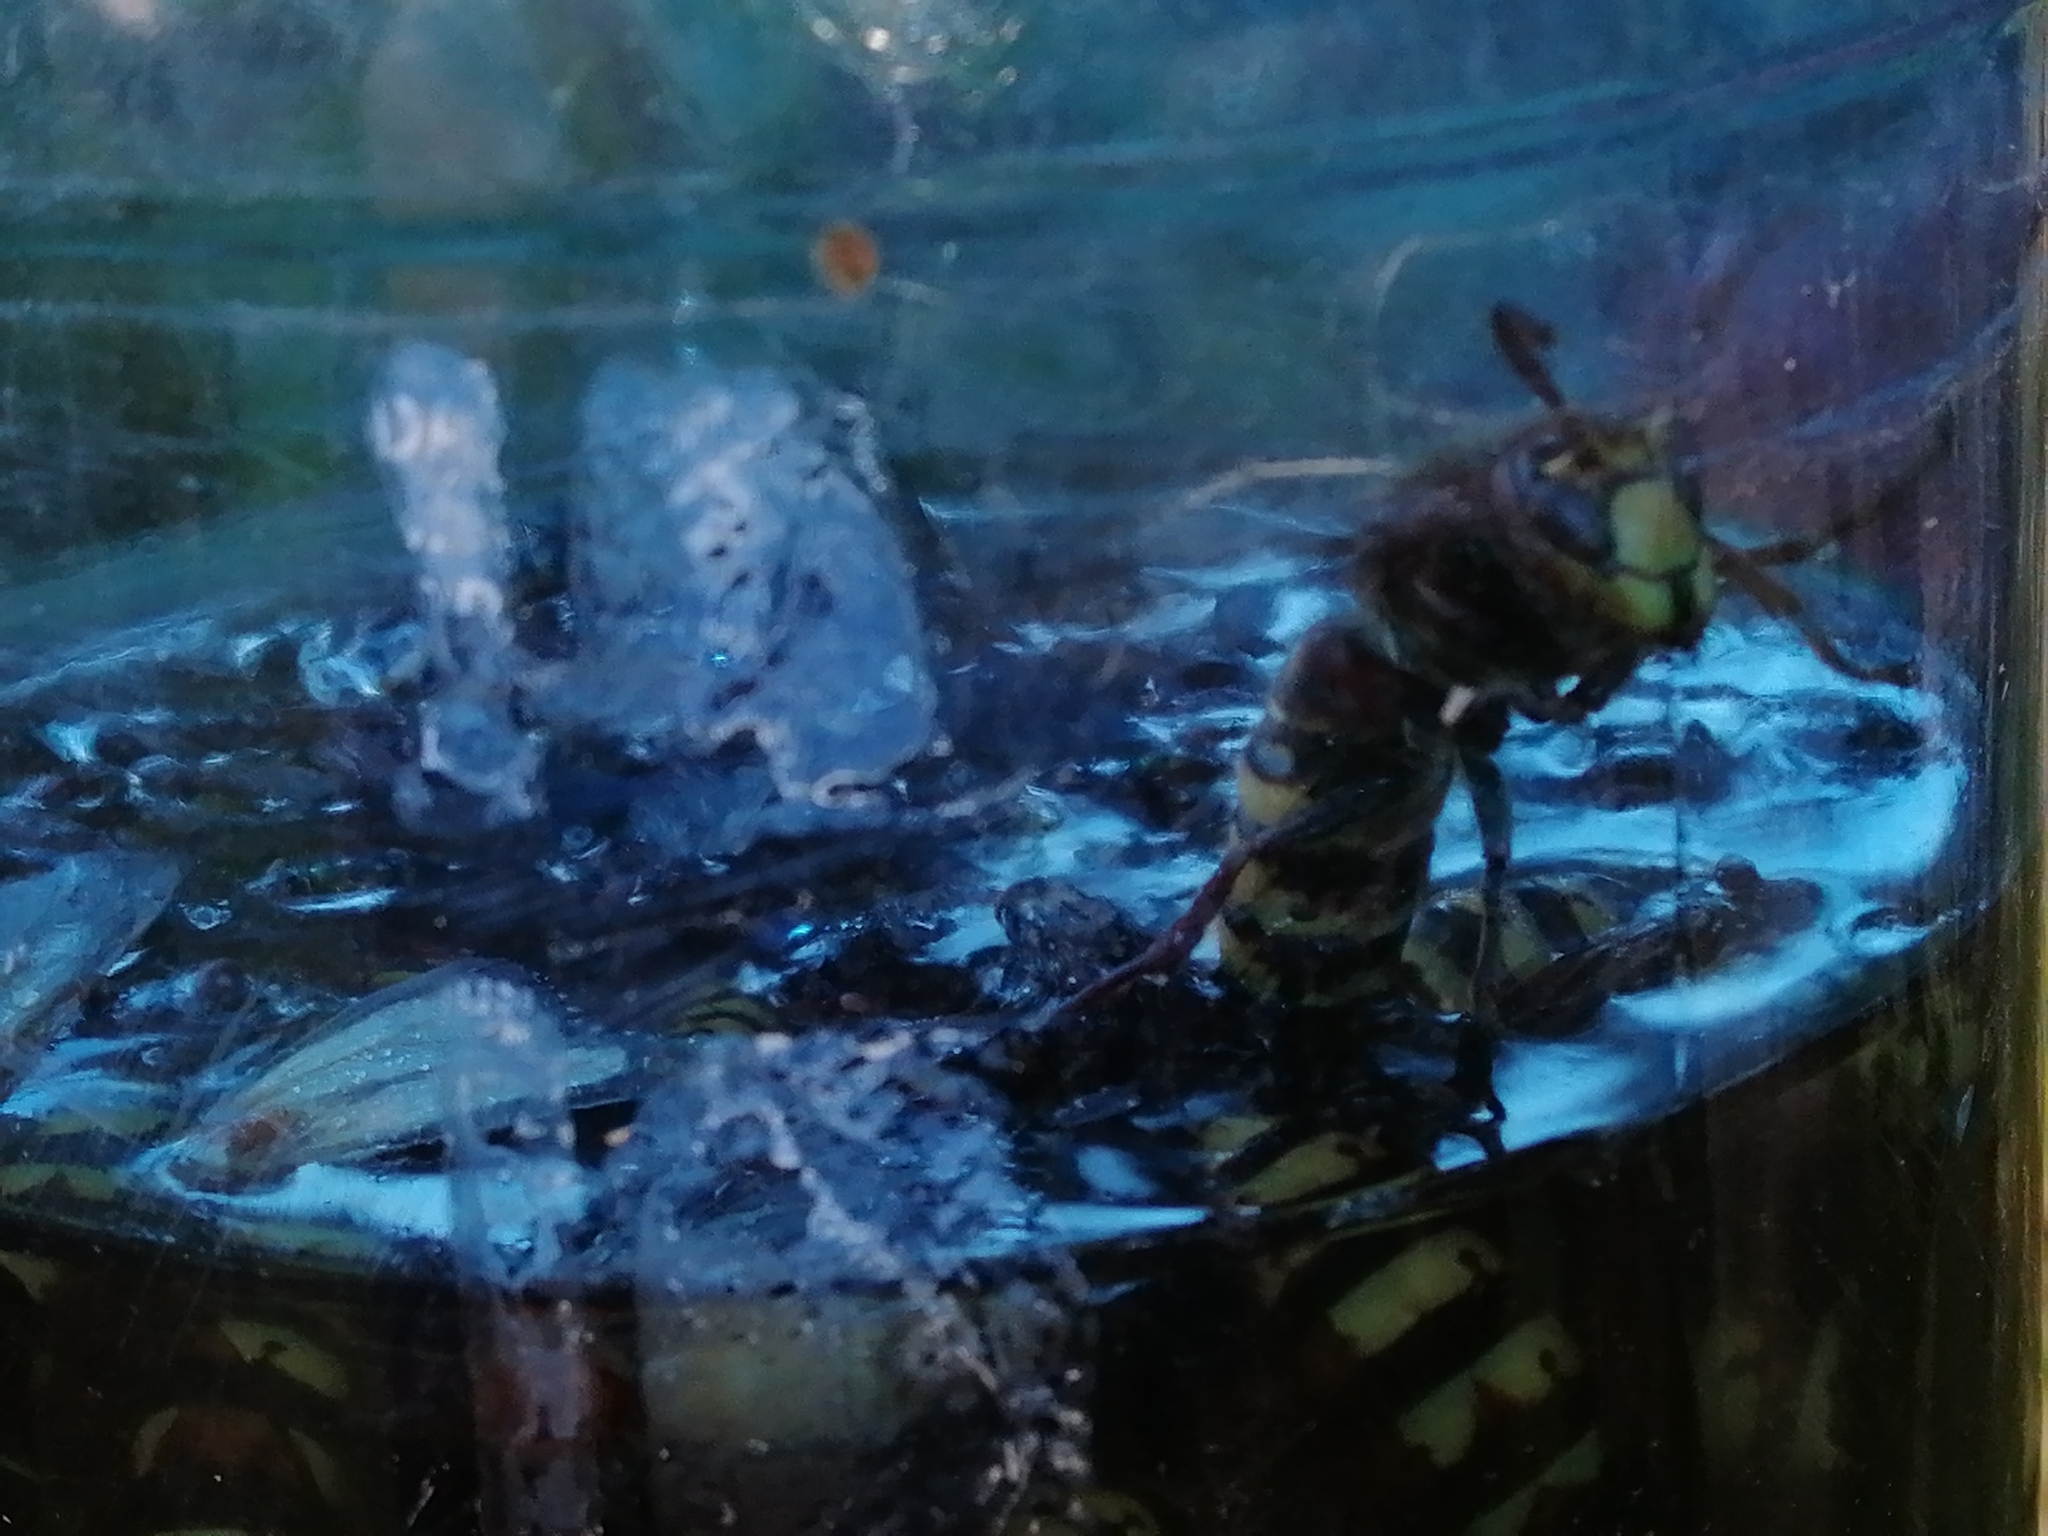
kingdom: Animalia
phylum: Arthropoda
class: Insecta
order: Hymenoptera
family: Vespidae
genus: Vespa
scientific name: Vespa crabro
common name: Hornet
